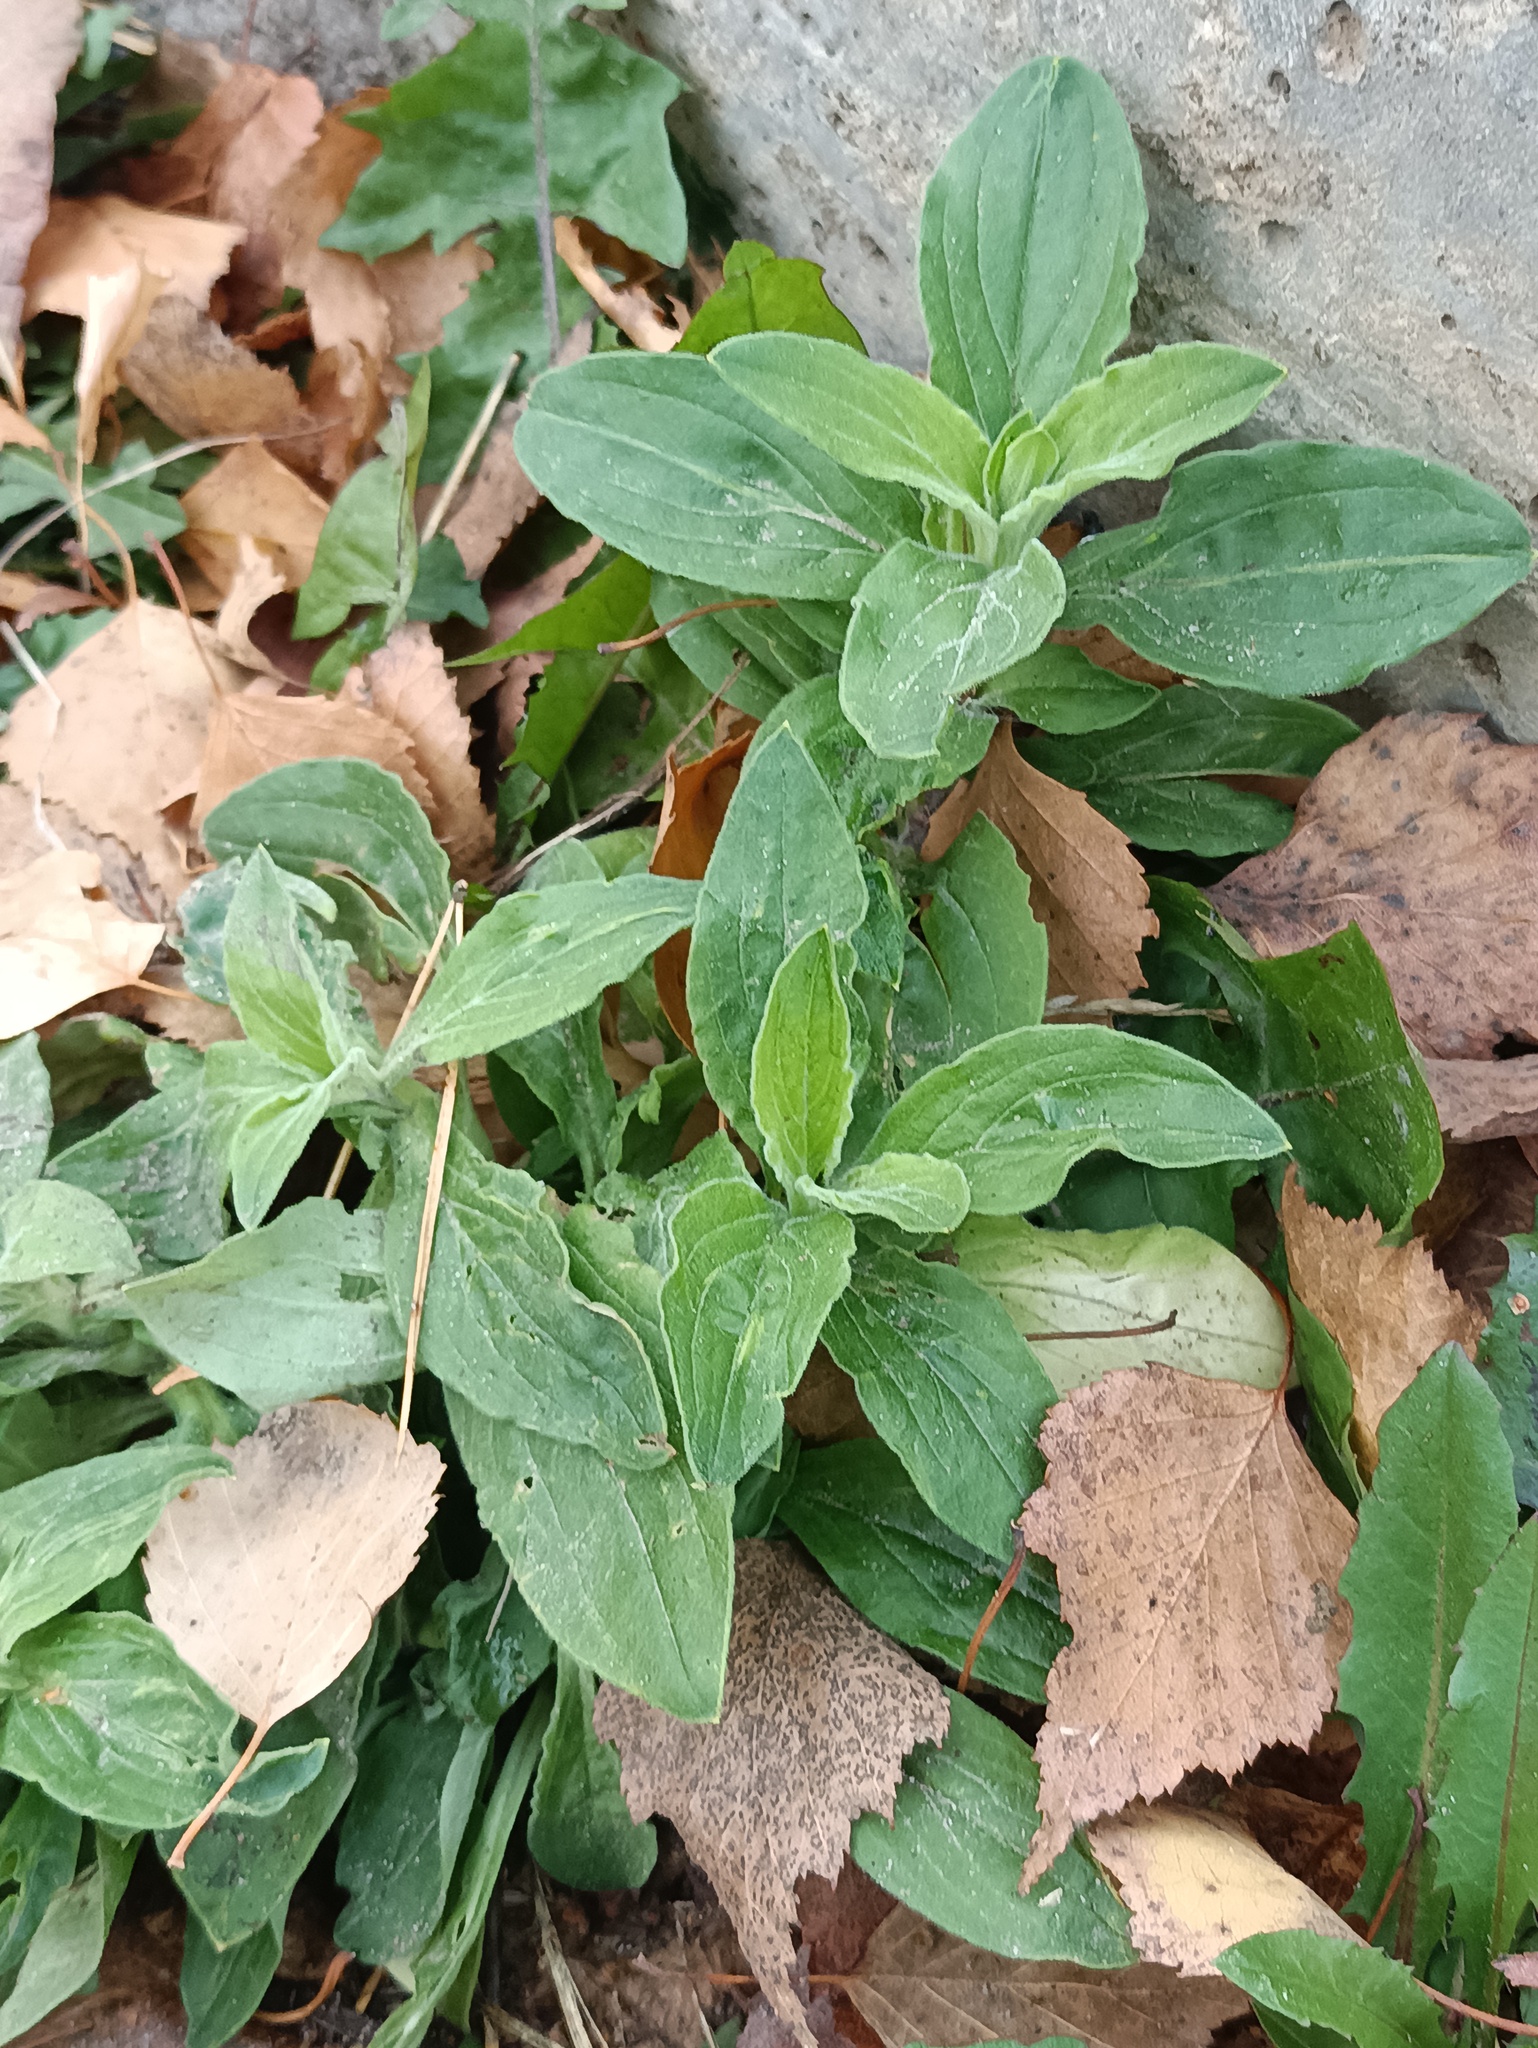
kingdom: Plantae
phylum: Tracheophyta
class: Magnoliopsida
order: Caryophyllales
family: Caryophyllaceae
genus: Silene
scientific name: Silene latifolia
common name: White campion
